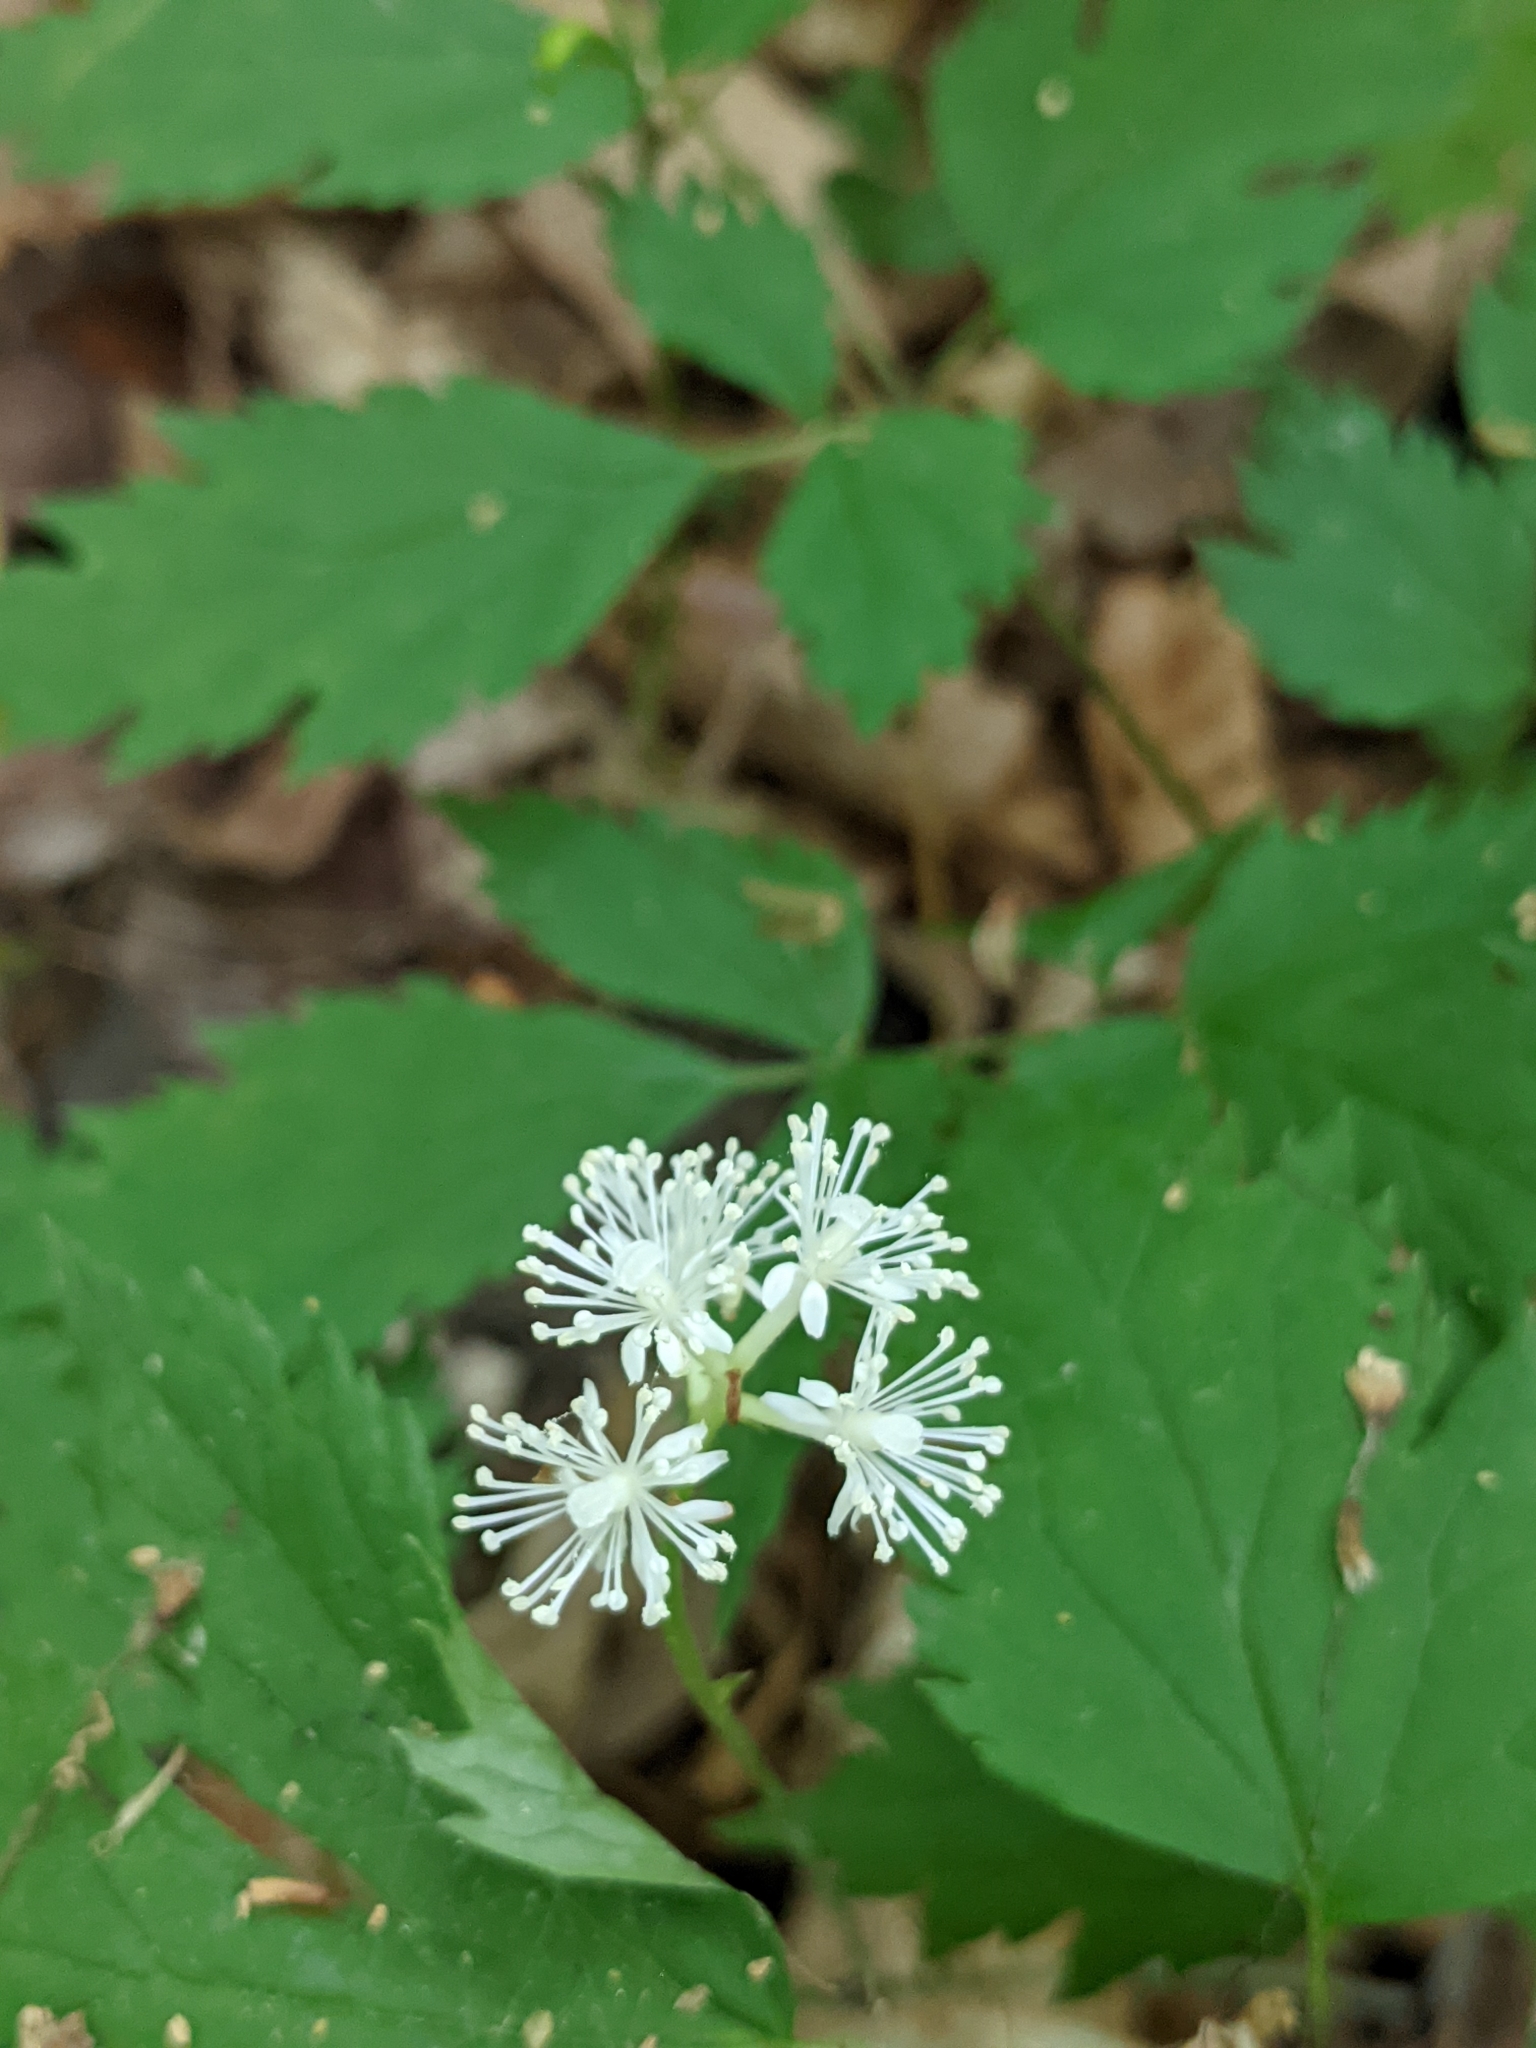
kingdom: Plantae
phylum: Tracheophyta
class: Magnoliopsida
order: Ranunculales
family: Ranunculaceae
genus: Actaea
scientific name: Actaea pachypoda
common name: Doll's-eyes
